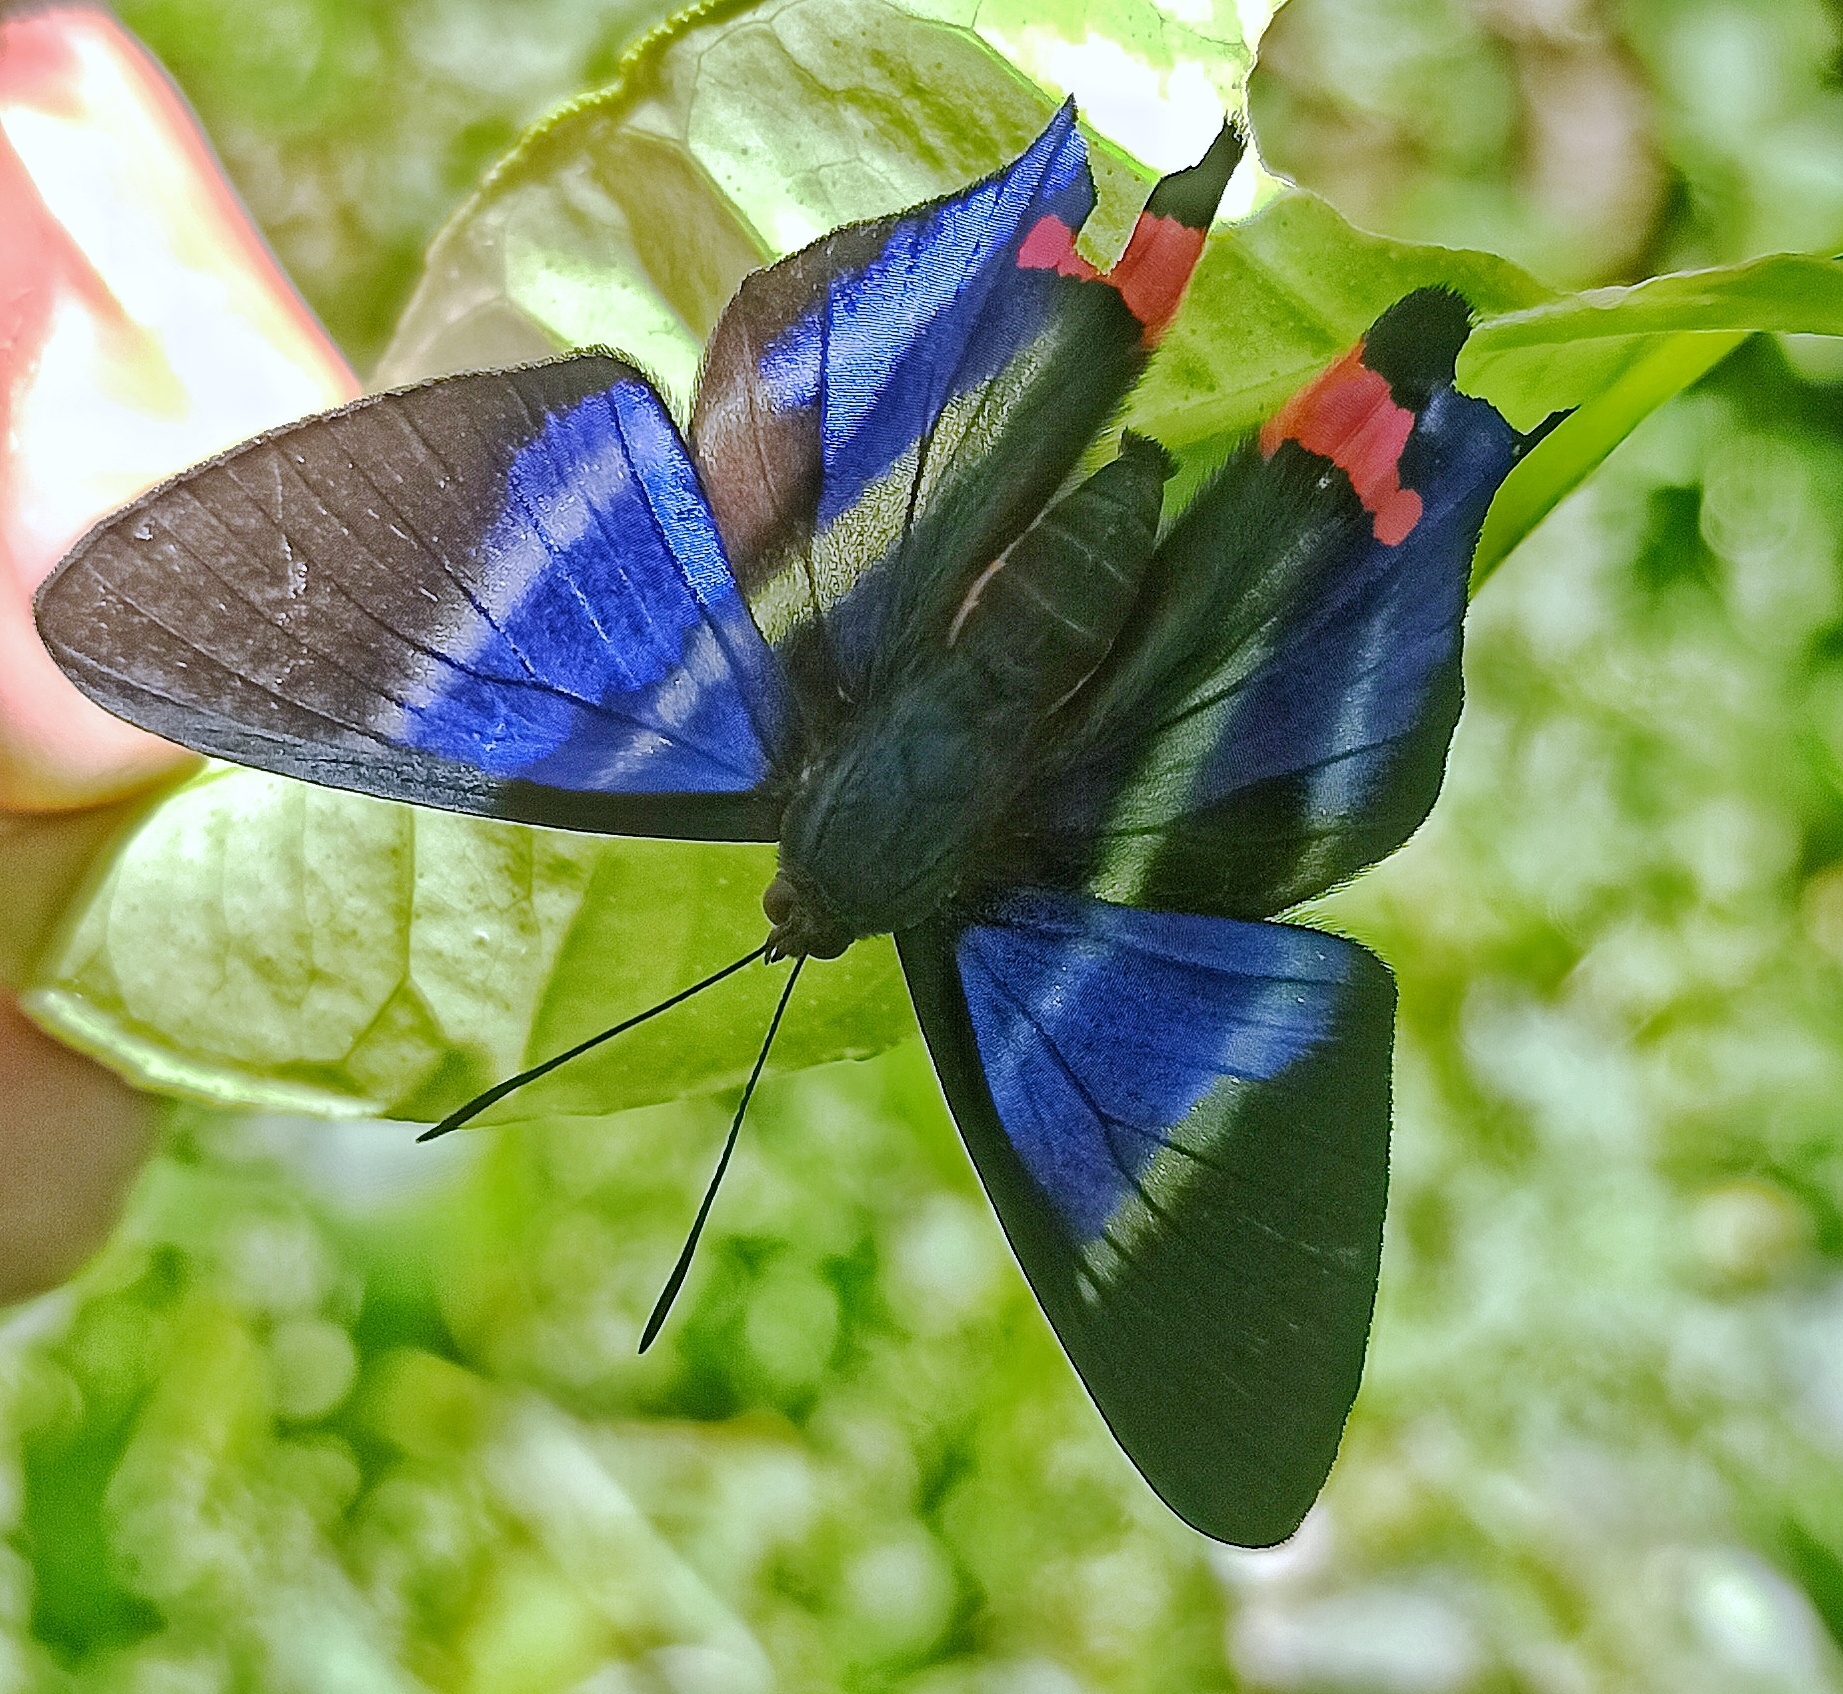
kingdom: Animalia
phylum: Arthropoda
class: Insecta
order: Lepidoptera
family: Riodinidae
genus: Rhetus
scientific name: Rhetus dysonii
